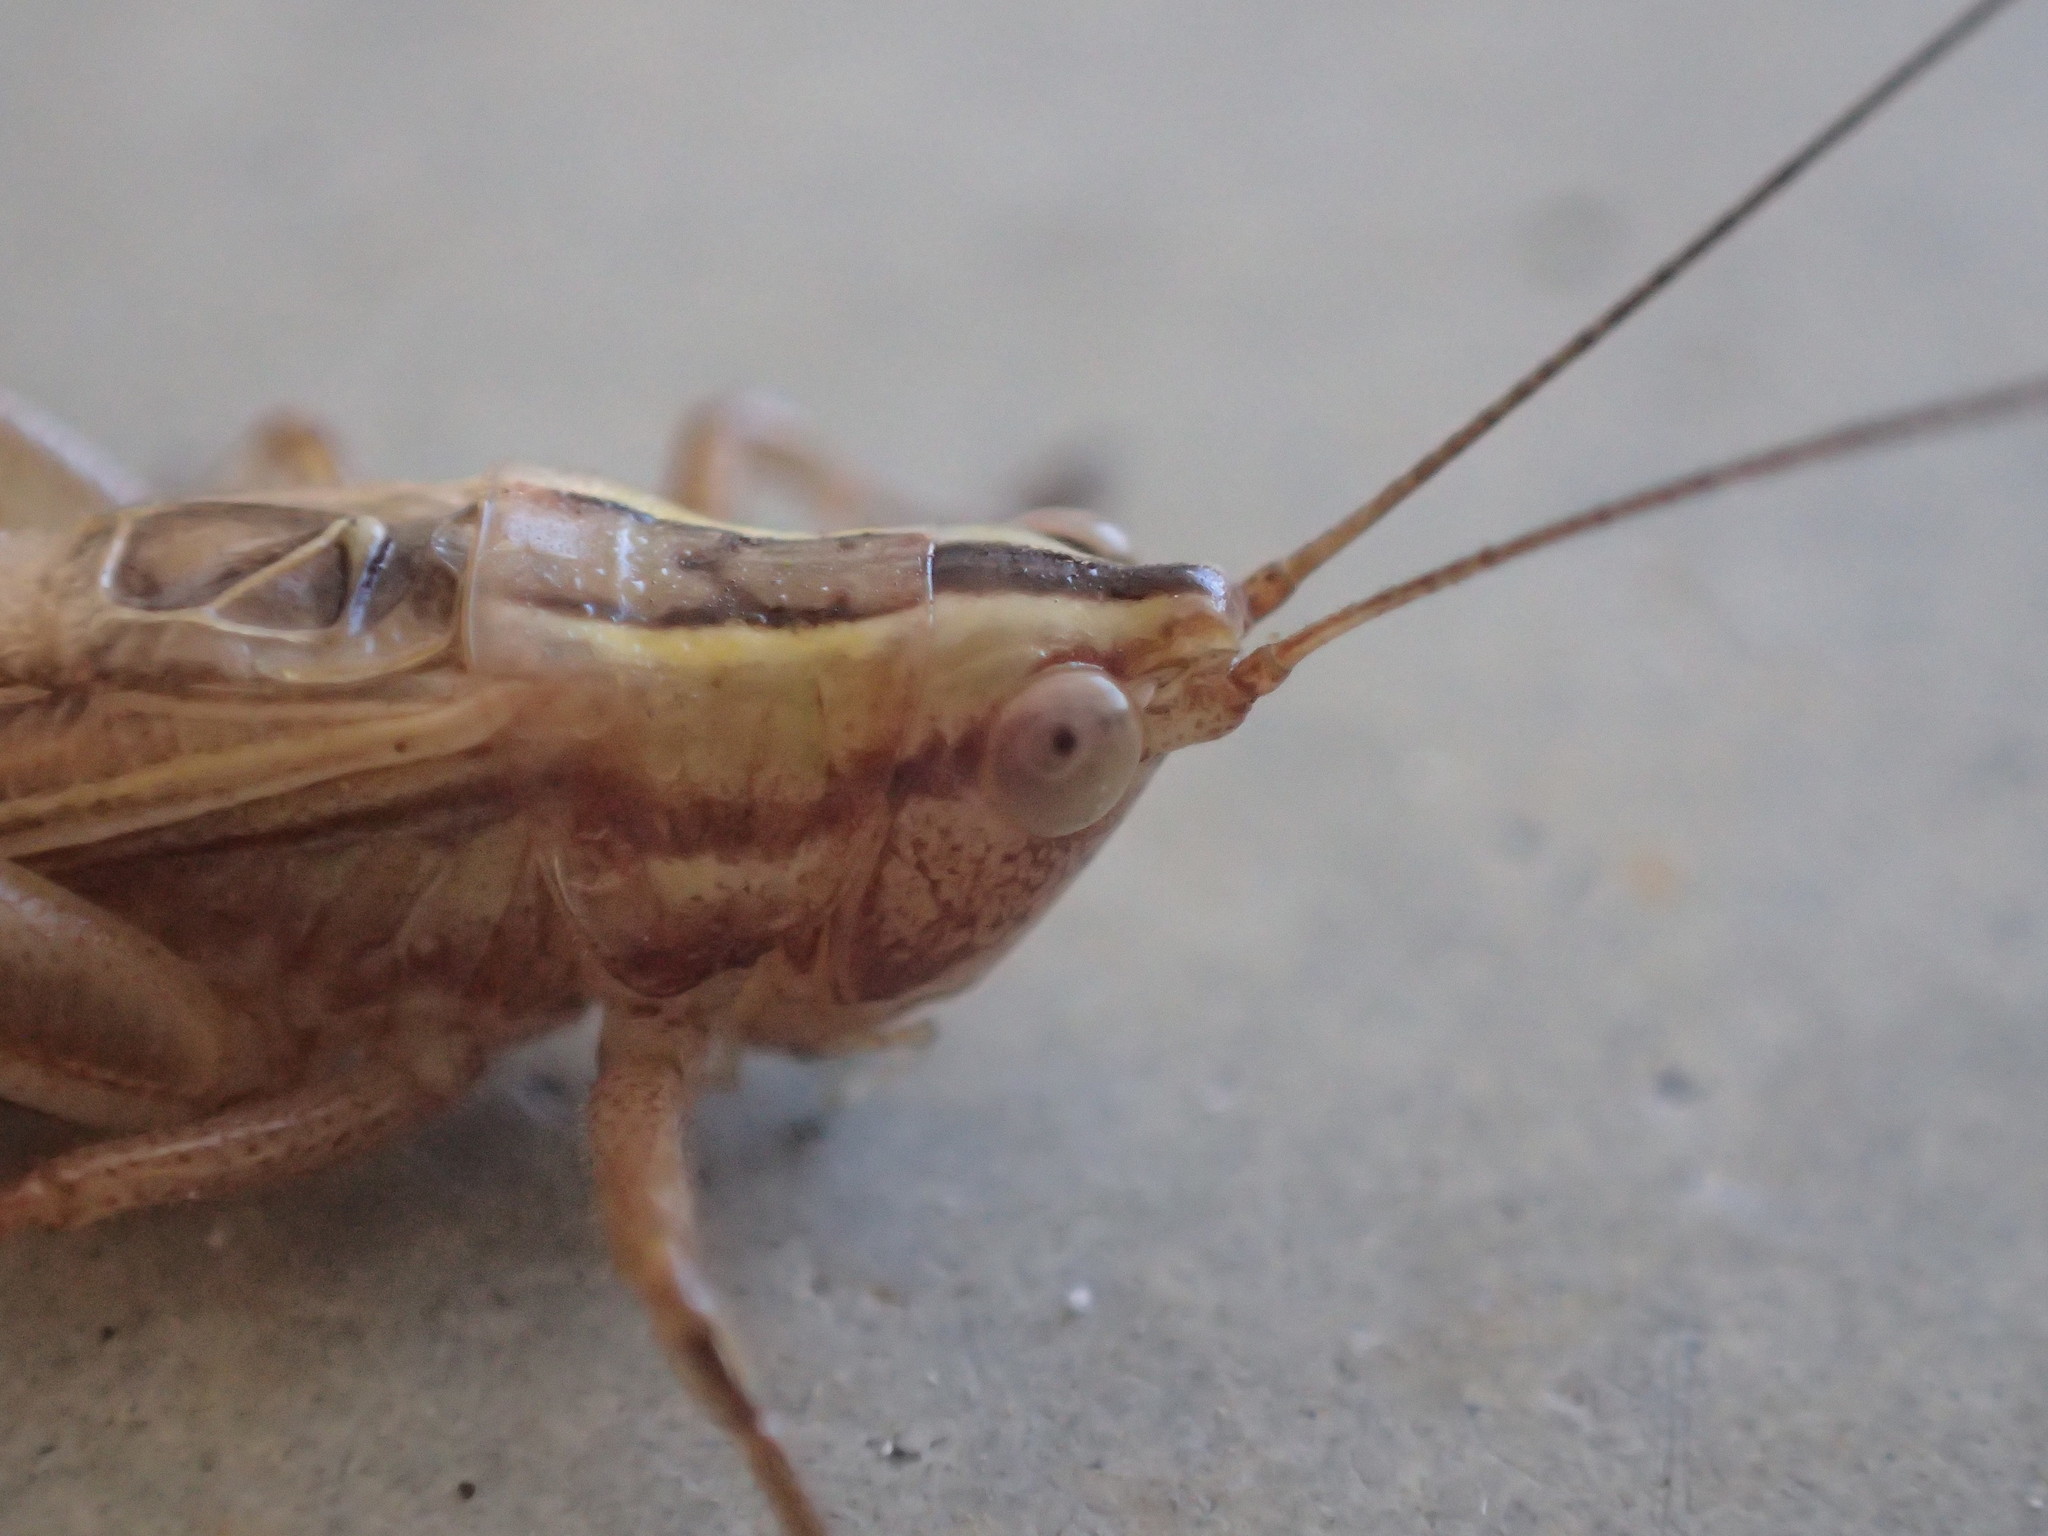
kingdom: Animalia
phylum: Arthropoda
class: Insecta
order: Orthoptera
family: Tettigoniidae
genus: Conocephalus
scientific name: Conocephalus bilineatus
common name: Small meadow katydid
